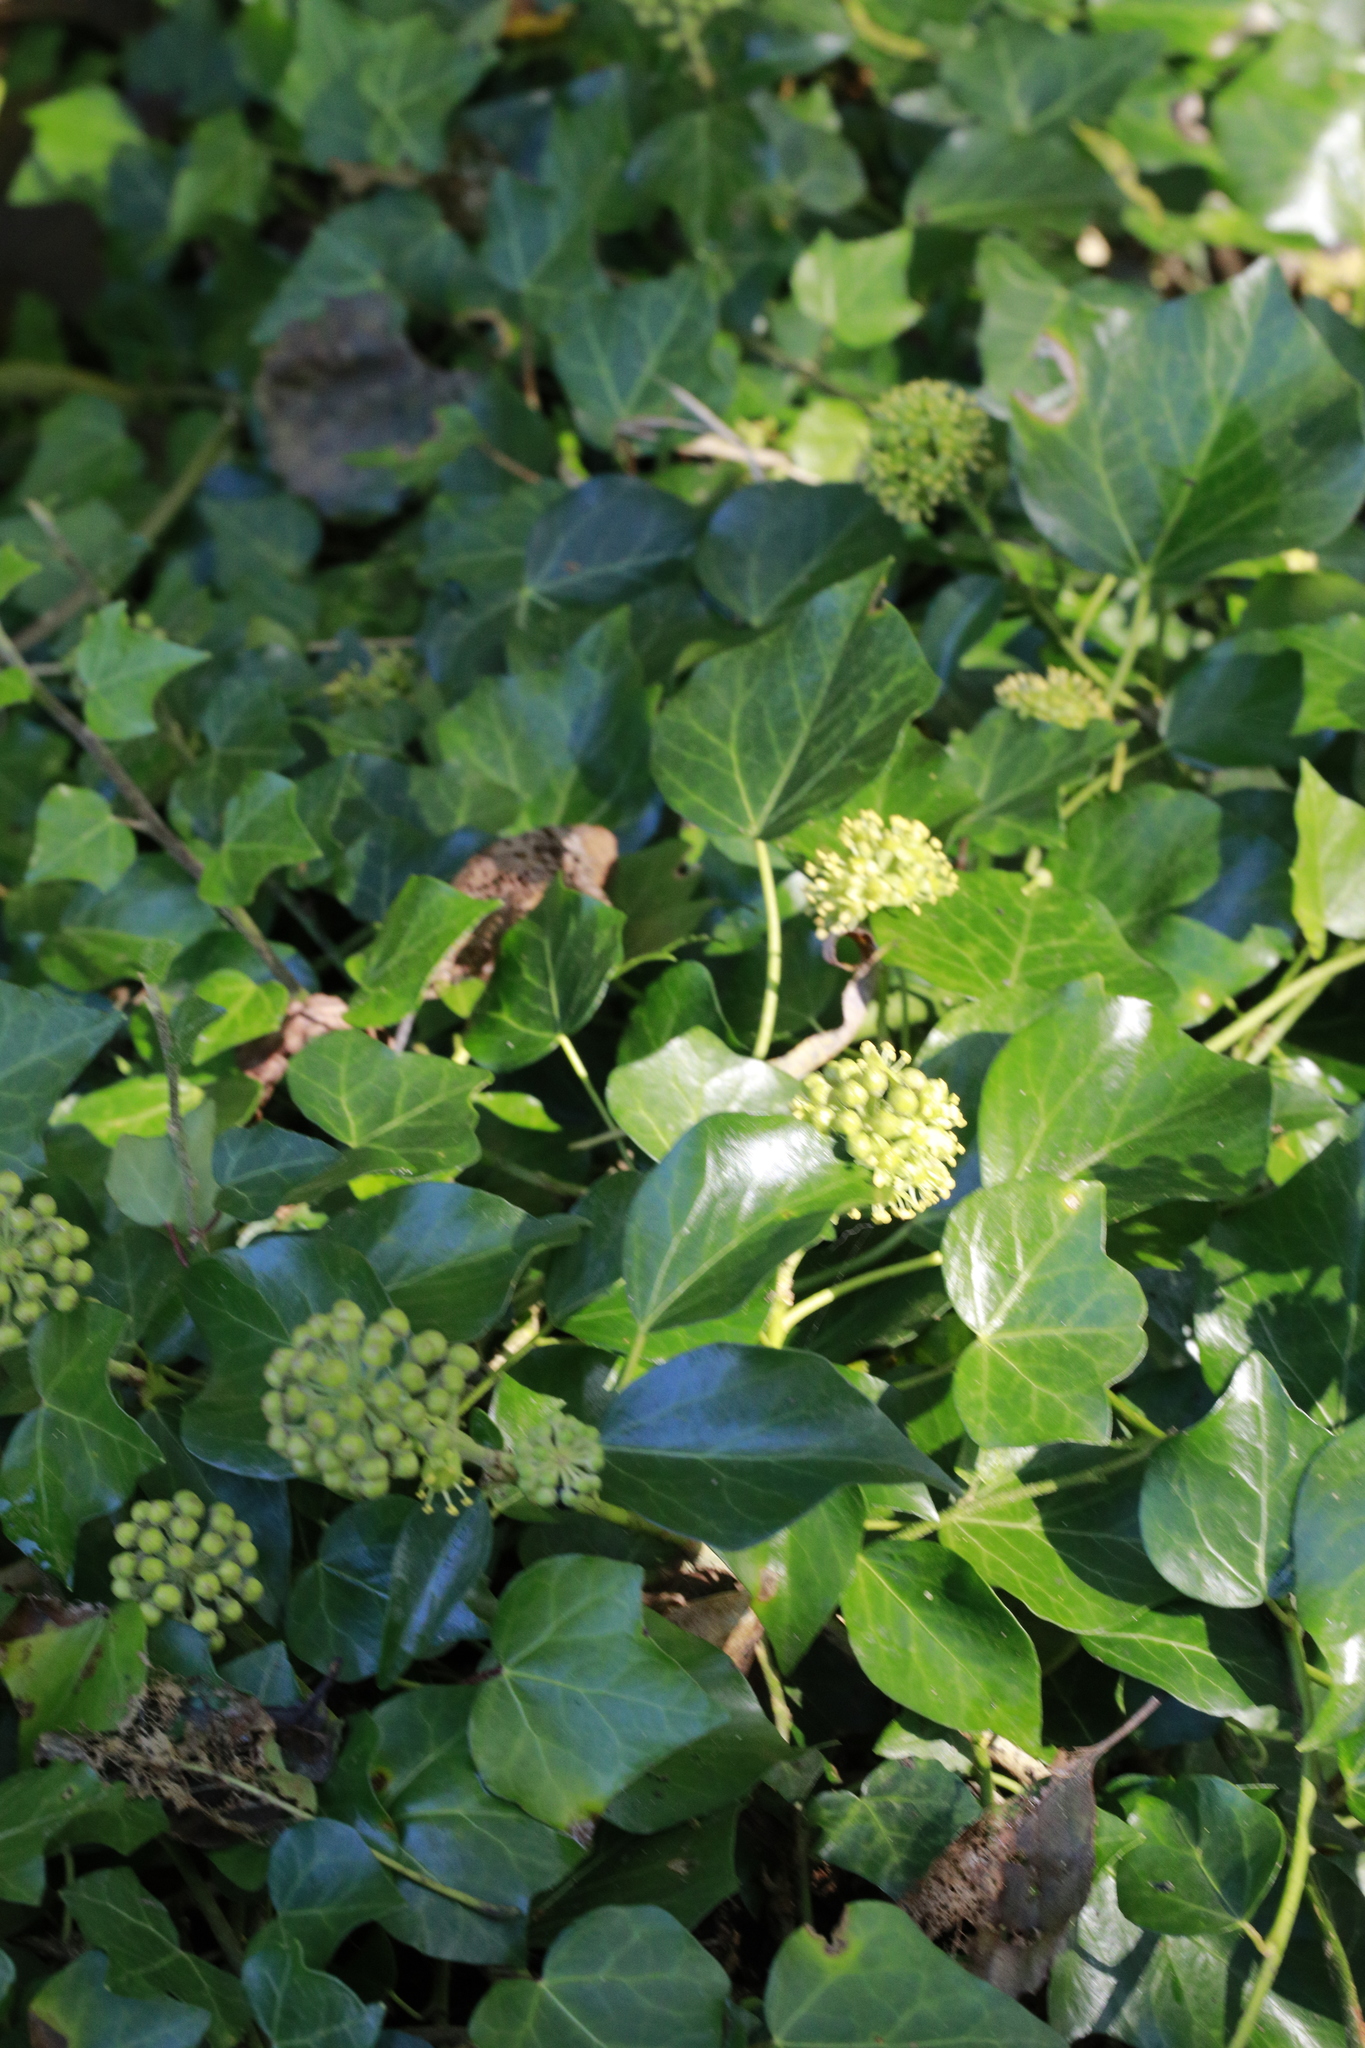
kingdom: Plantae
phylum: Tracheophyta
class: Magnoliopsida
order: Apiales
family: Araliaceae
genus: Hedera
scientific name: Hedera helix
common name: Ivy
